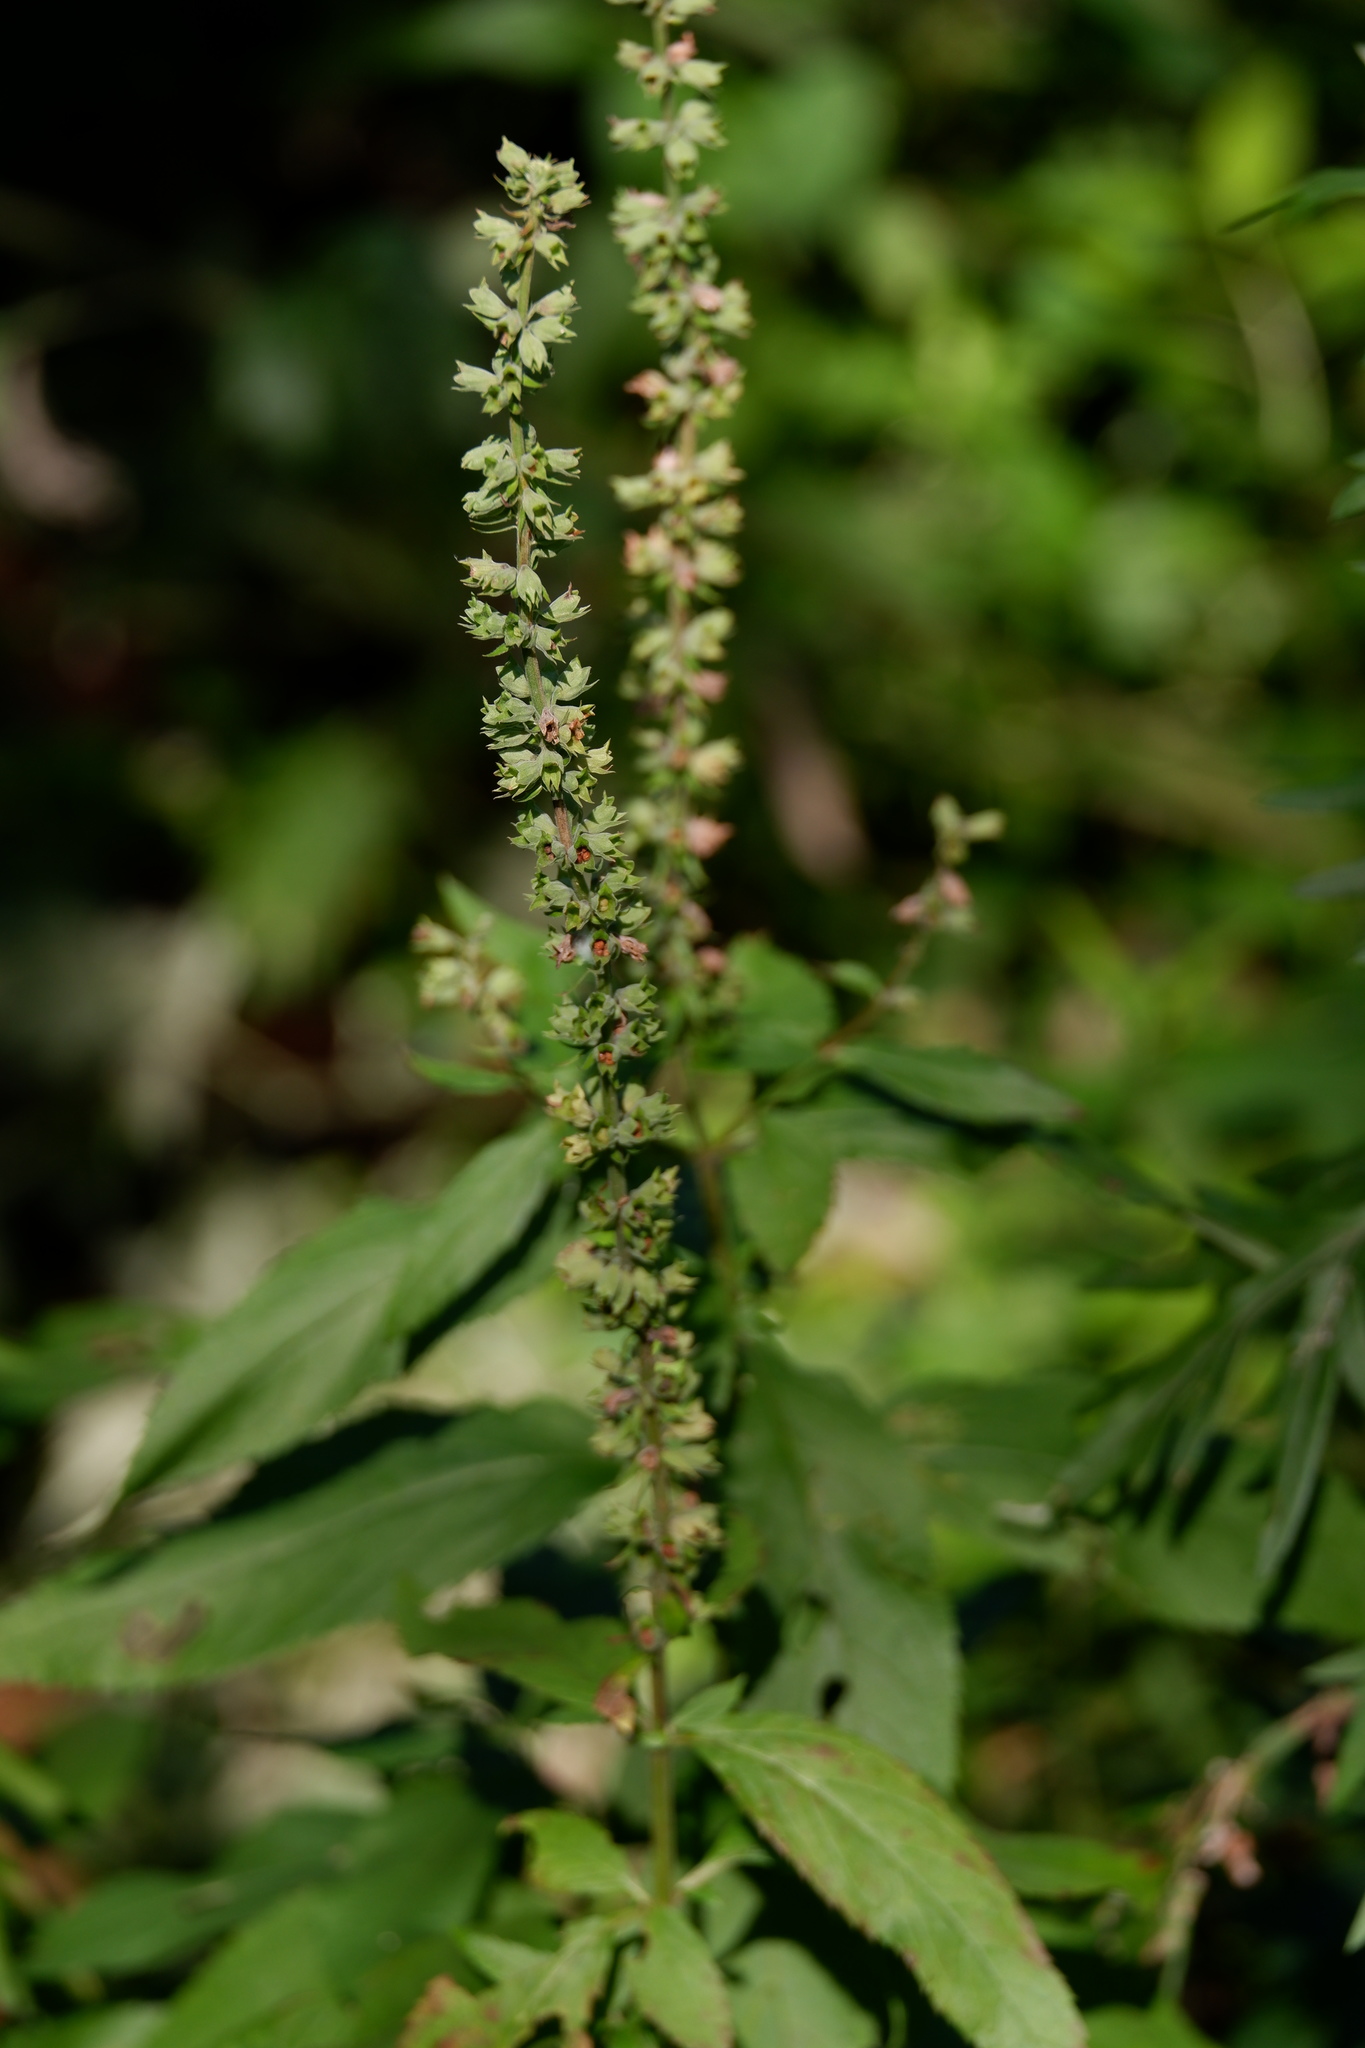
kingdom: Plantae
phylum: Tracheophyta
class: Magnoliopsida
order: Lamiales
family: Lamiaceae
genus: Teucrium
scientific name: Teucrium canadense
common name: American germander
